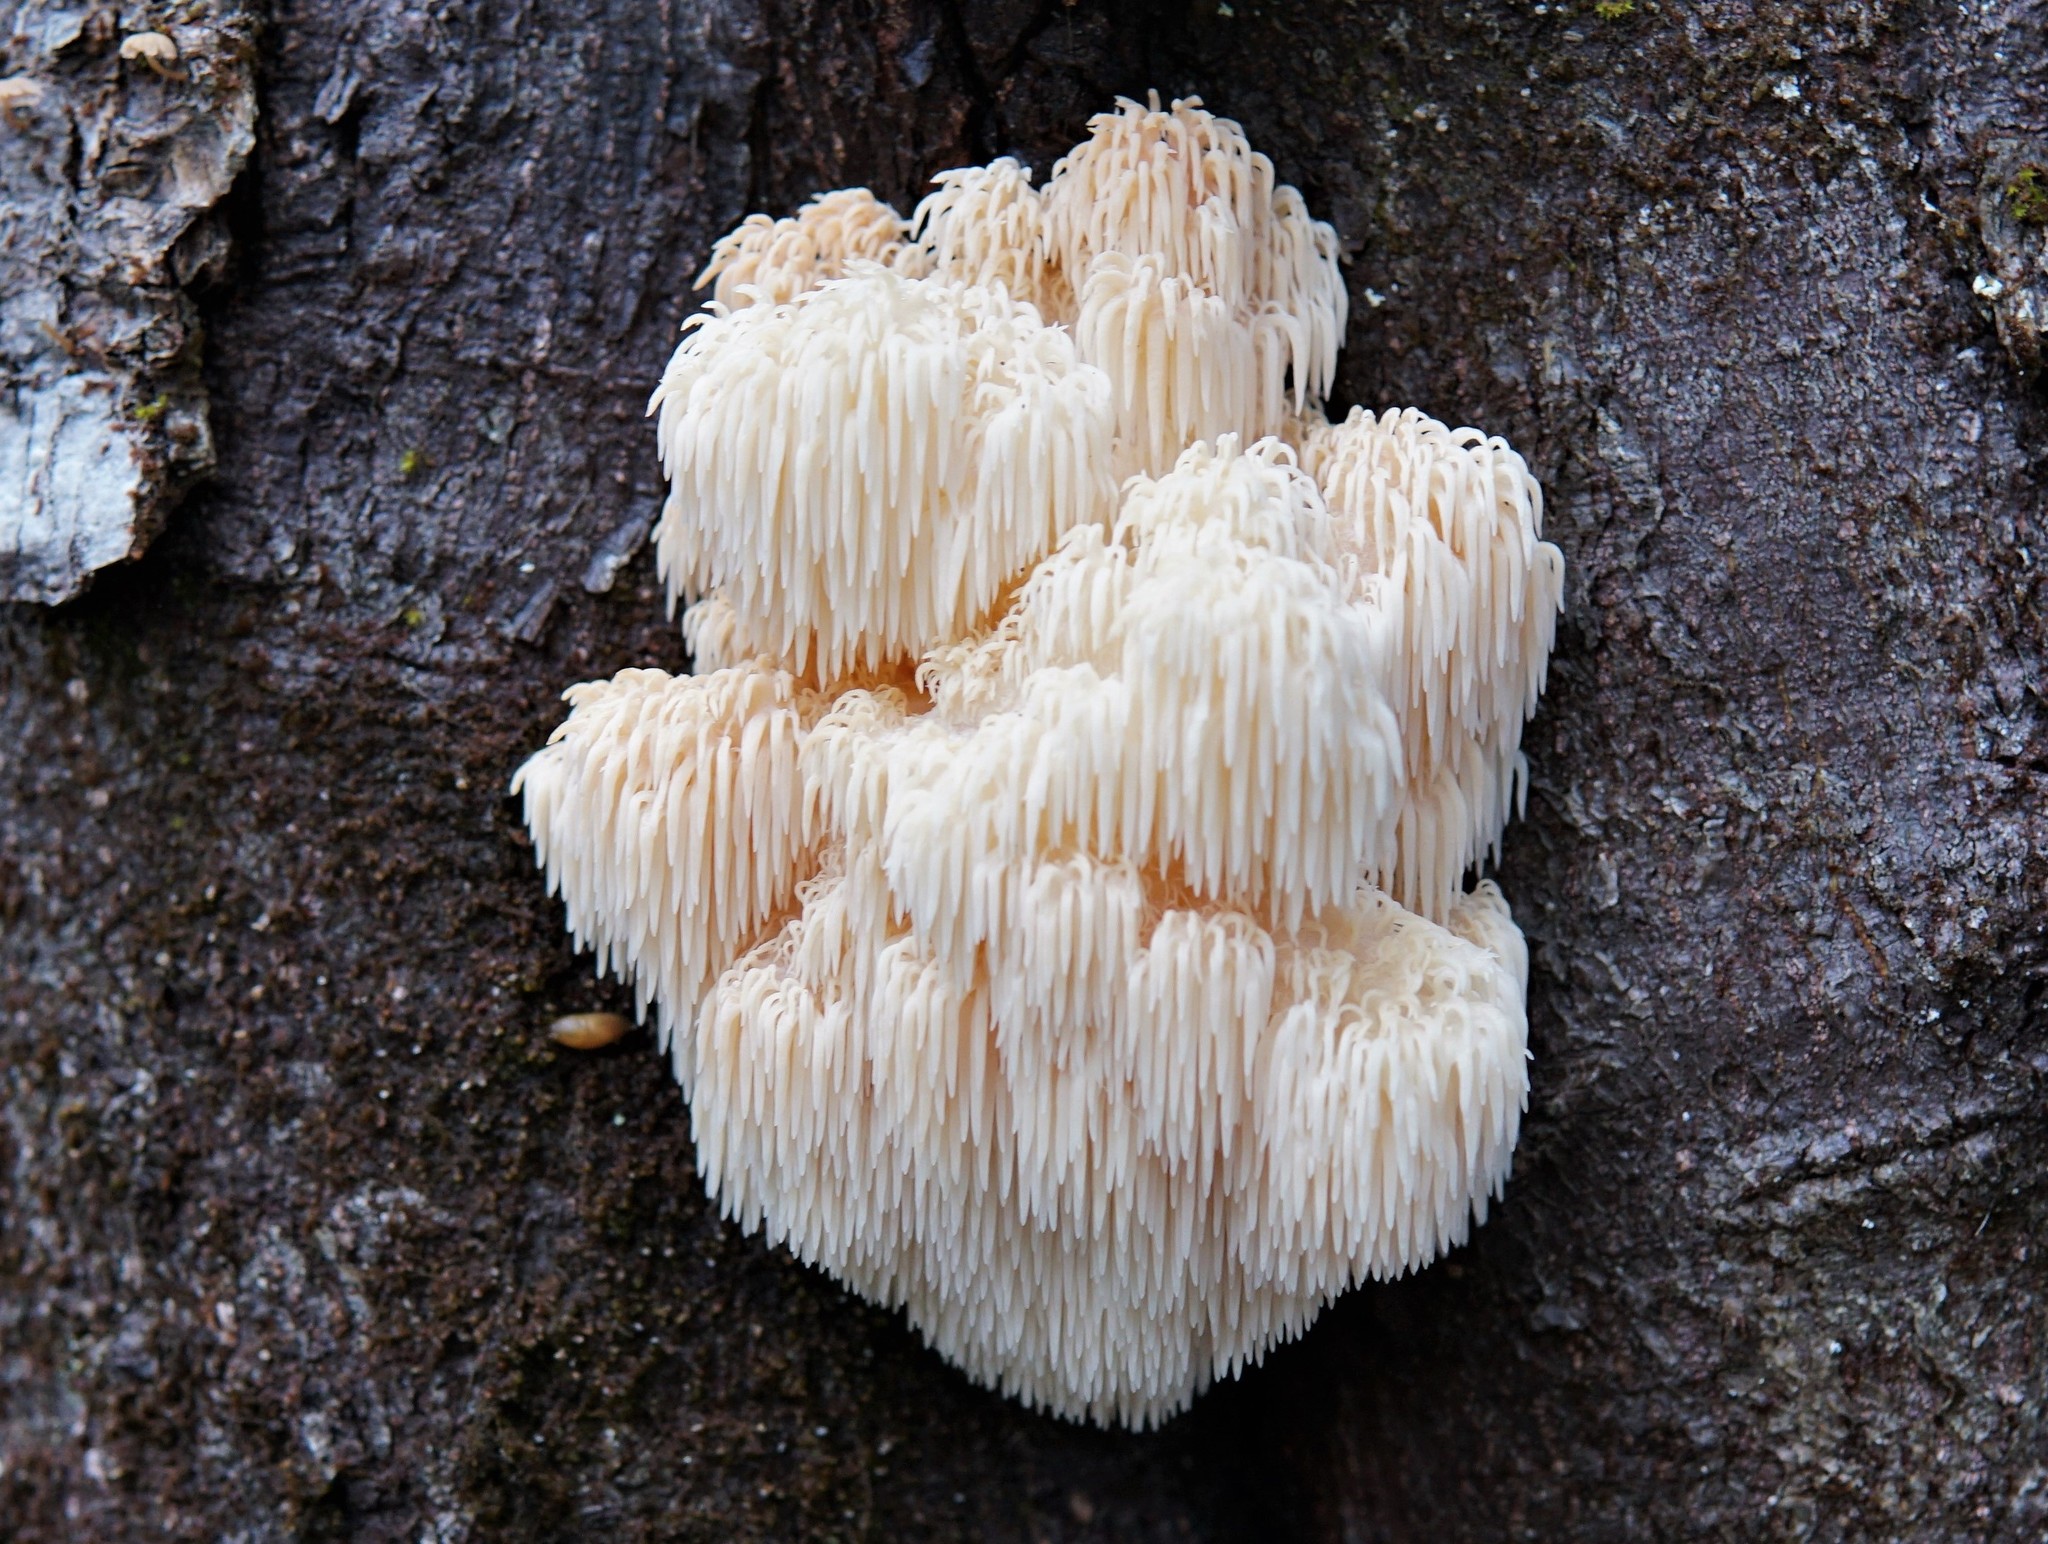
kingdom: Fungi
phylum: Basidiomycota
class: Agaricomycetes
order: Russulales
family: Hericiaceae
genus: Hericium
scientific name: Hericium americanum
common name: Bear's head tooth
